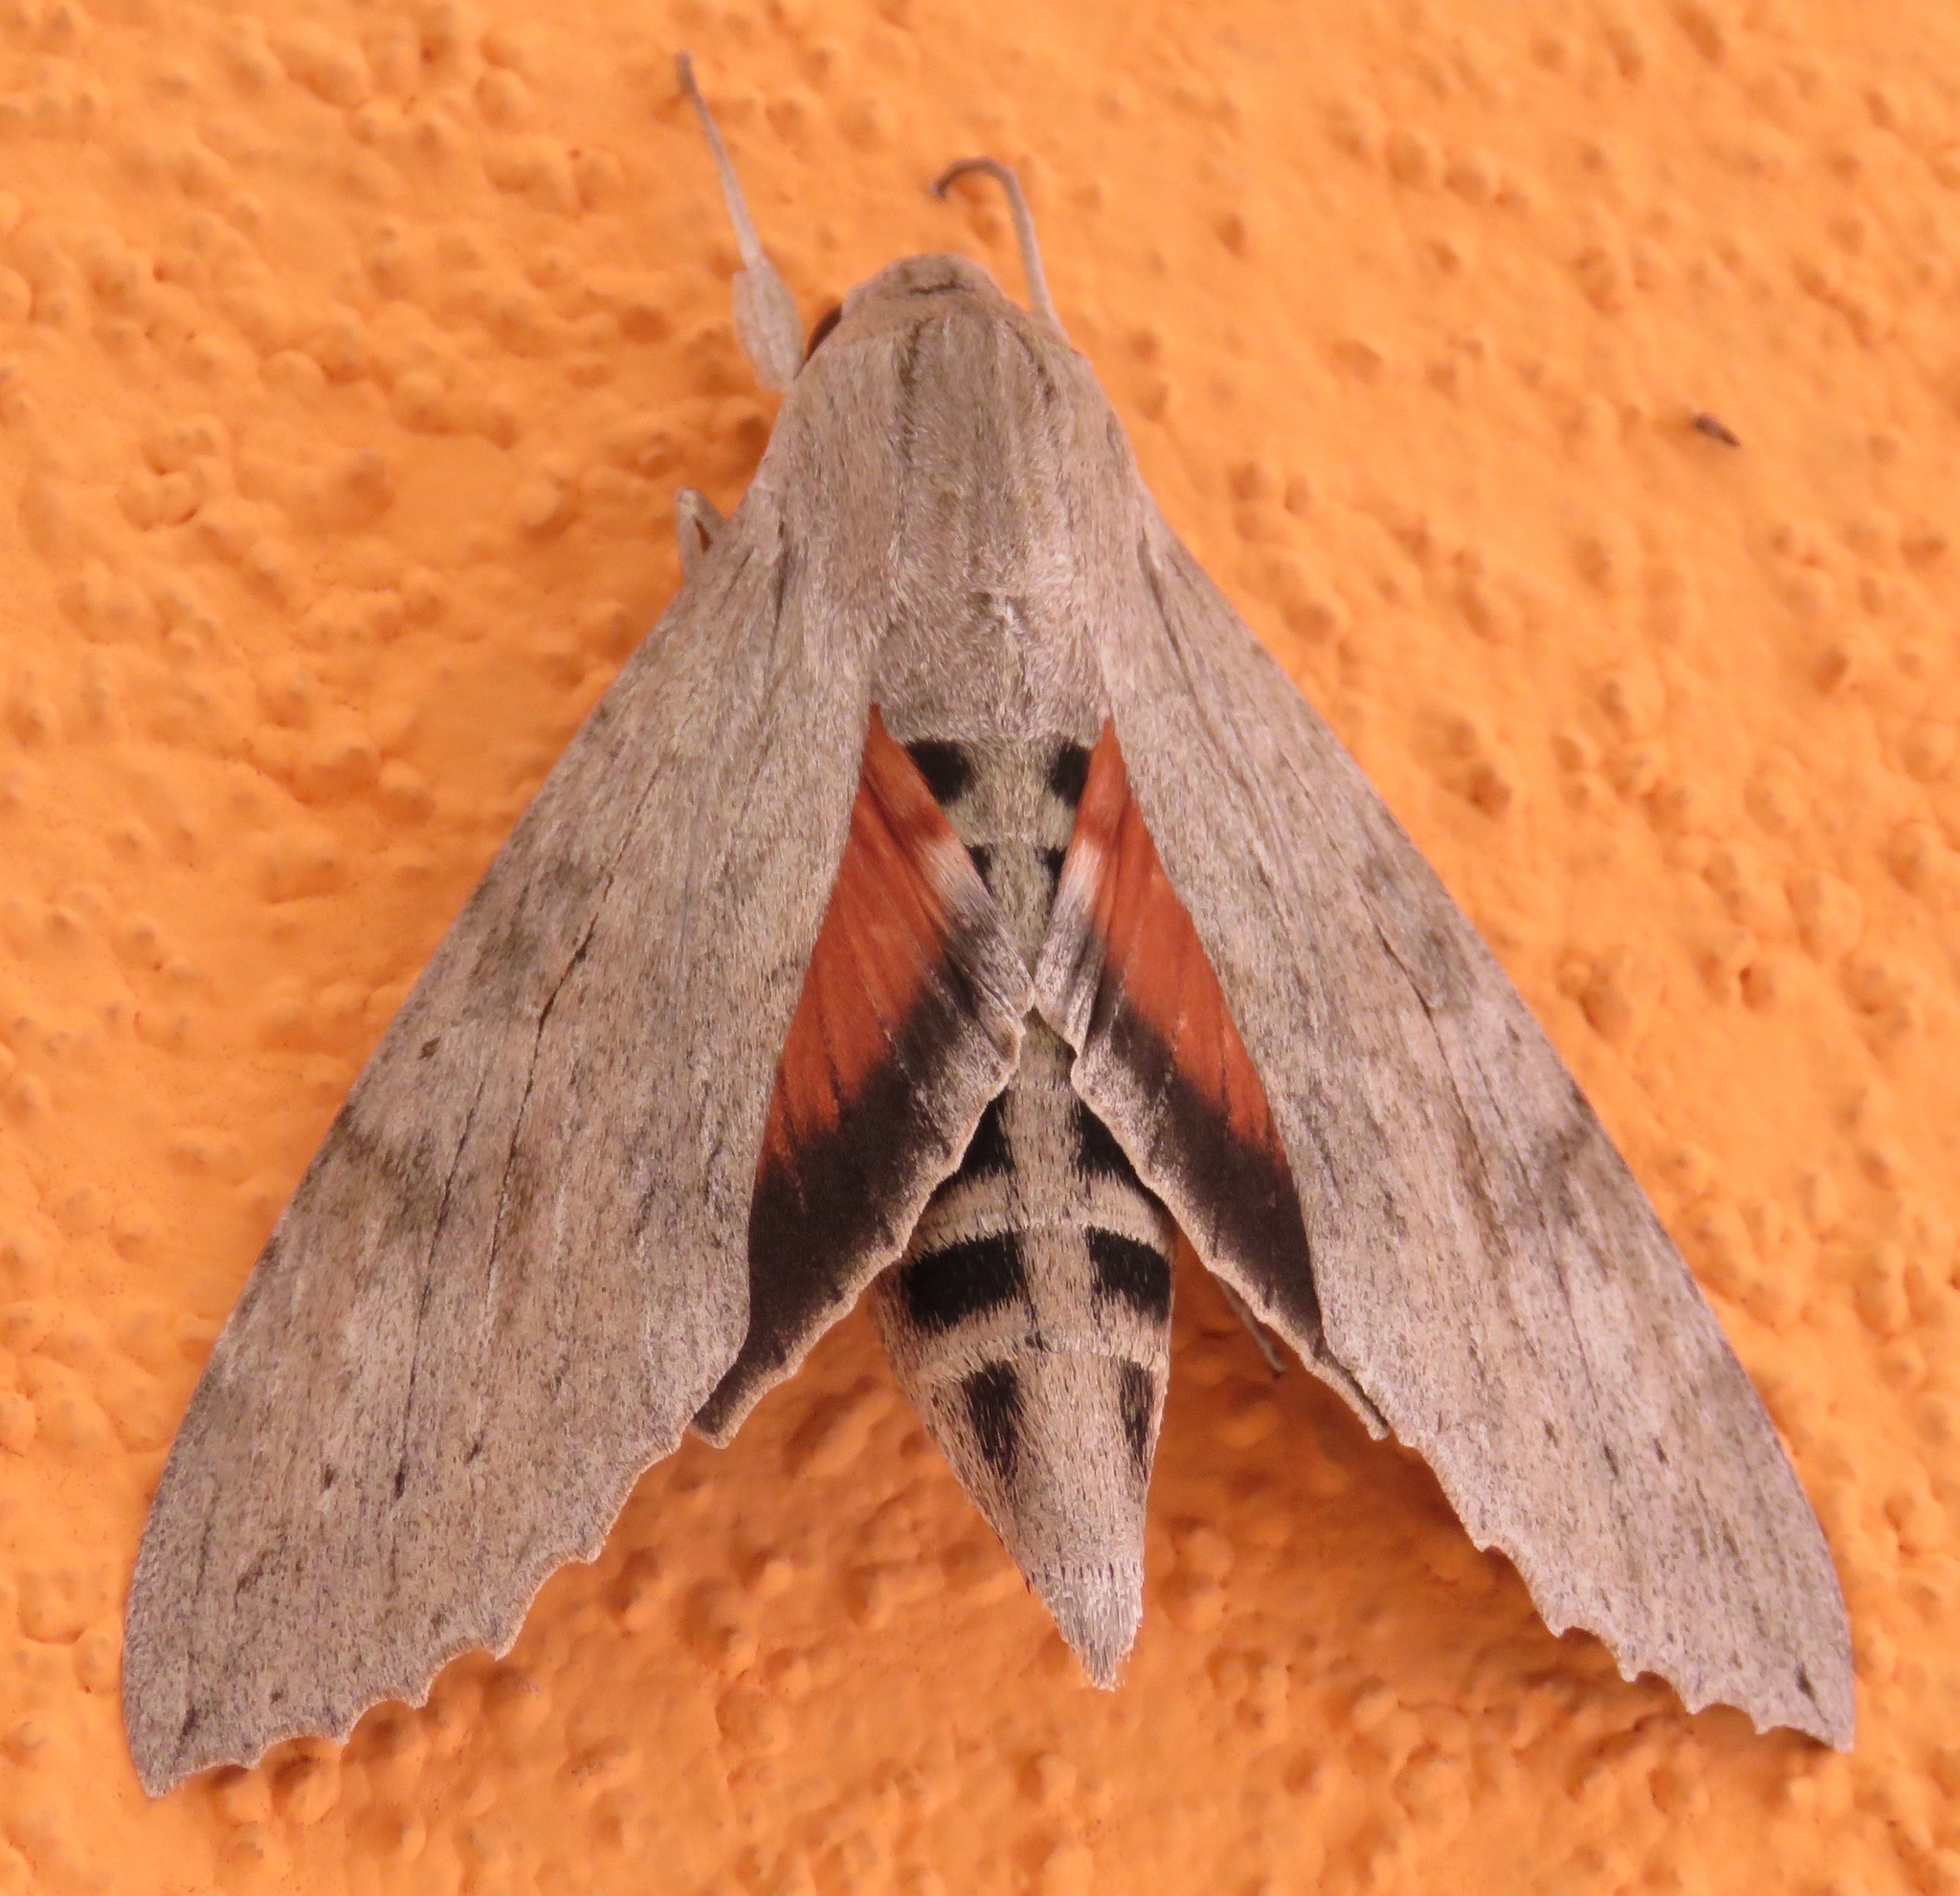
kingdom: Animalia
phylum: Arthropoda
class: Insecta
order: Lepidoptera
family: Sphingidae
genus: Erinnyis
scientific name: Erinnyis ello
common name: Ello sphinx
